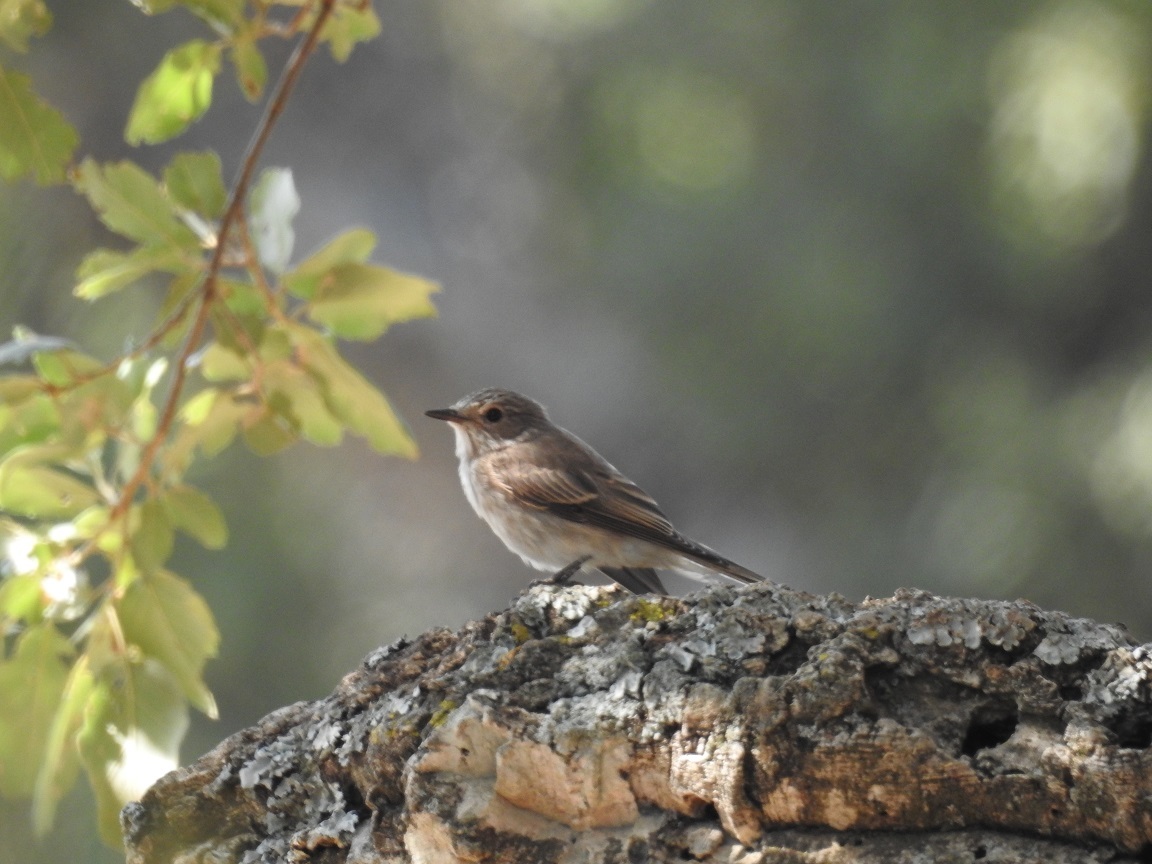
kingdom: Animalia
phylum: Chordata
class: Aves
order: Passeriformes
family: Muscicapidae
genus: Muscicapa
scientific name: Muscicapa striata
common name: Spotted flycatcher
